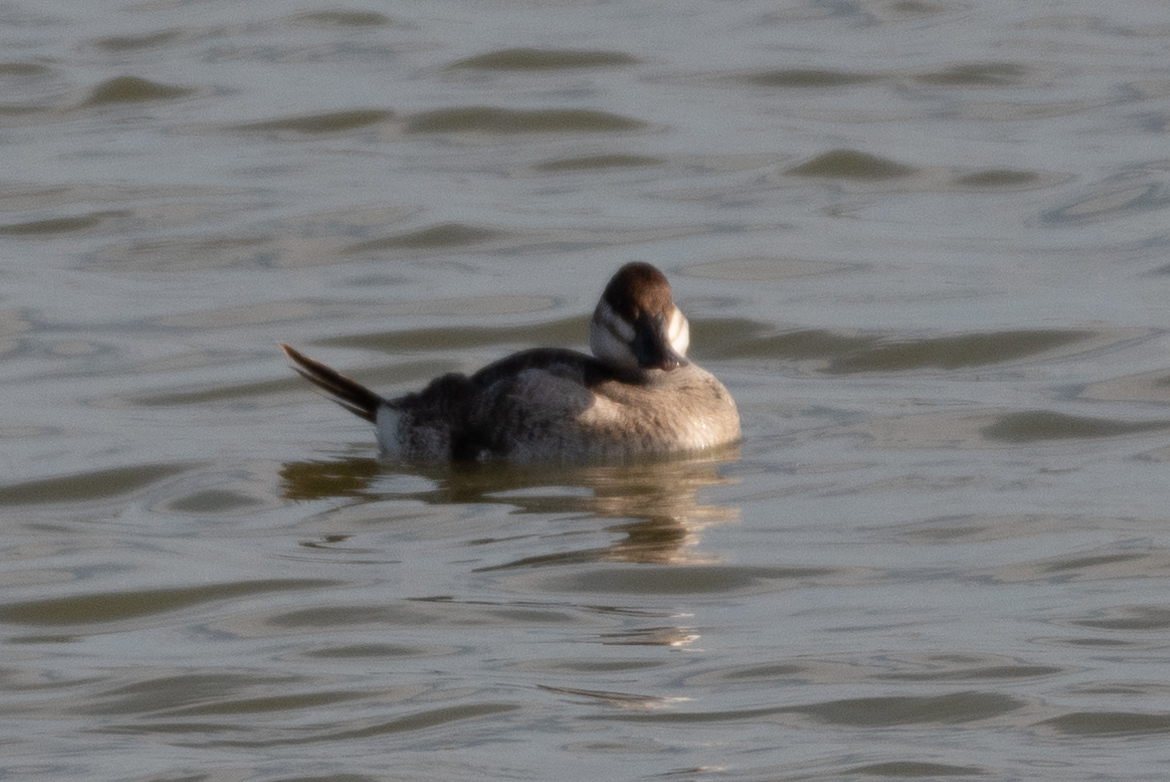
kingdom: Animalia
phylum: Chordata
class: Aves
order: Anseriformes
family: Anatidae
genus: Oxyura
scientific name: Oxyura jamaicensis
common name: Ruddy duck
